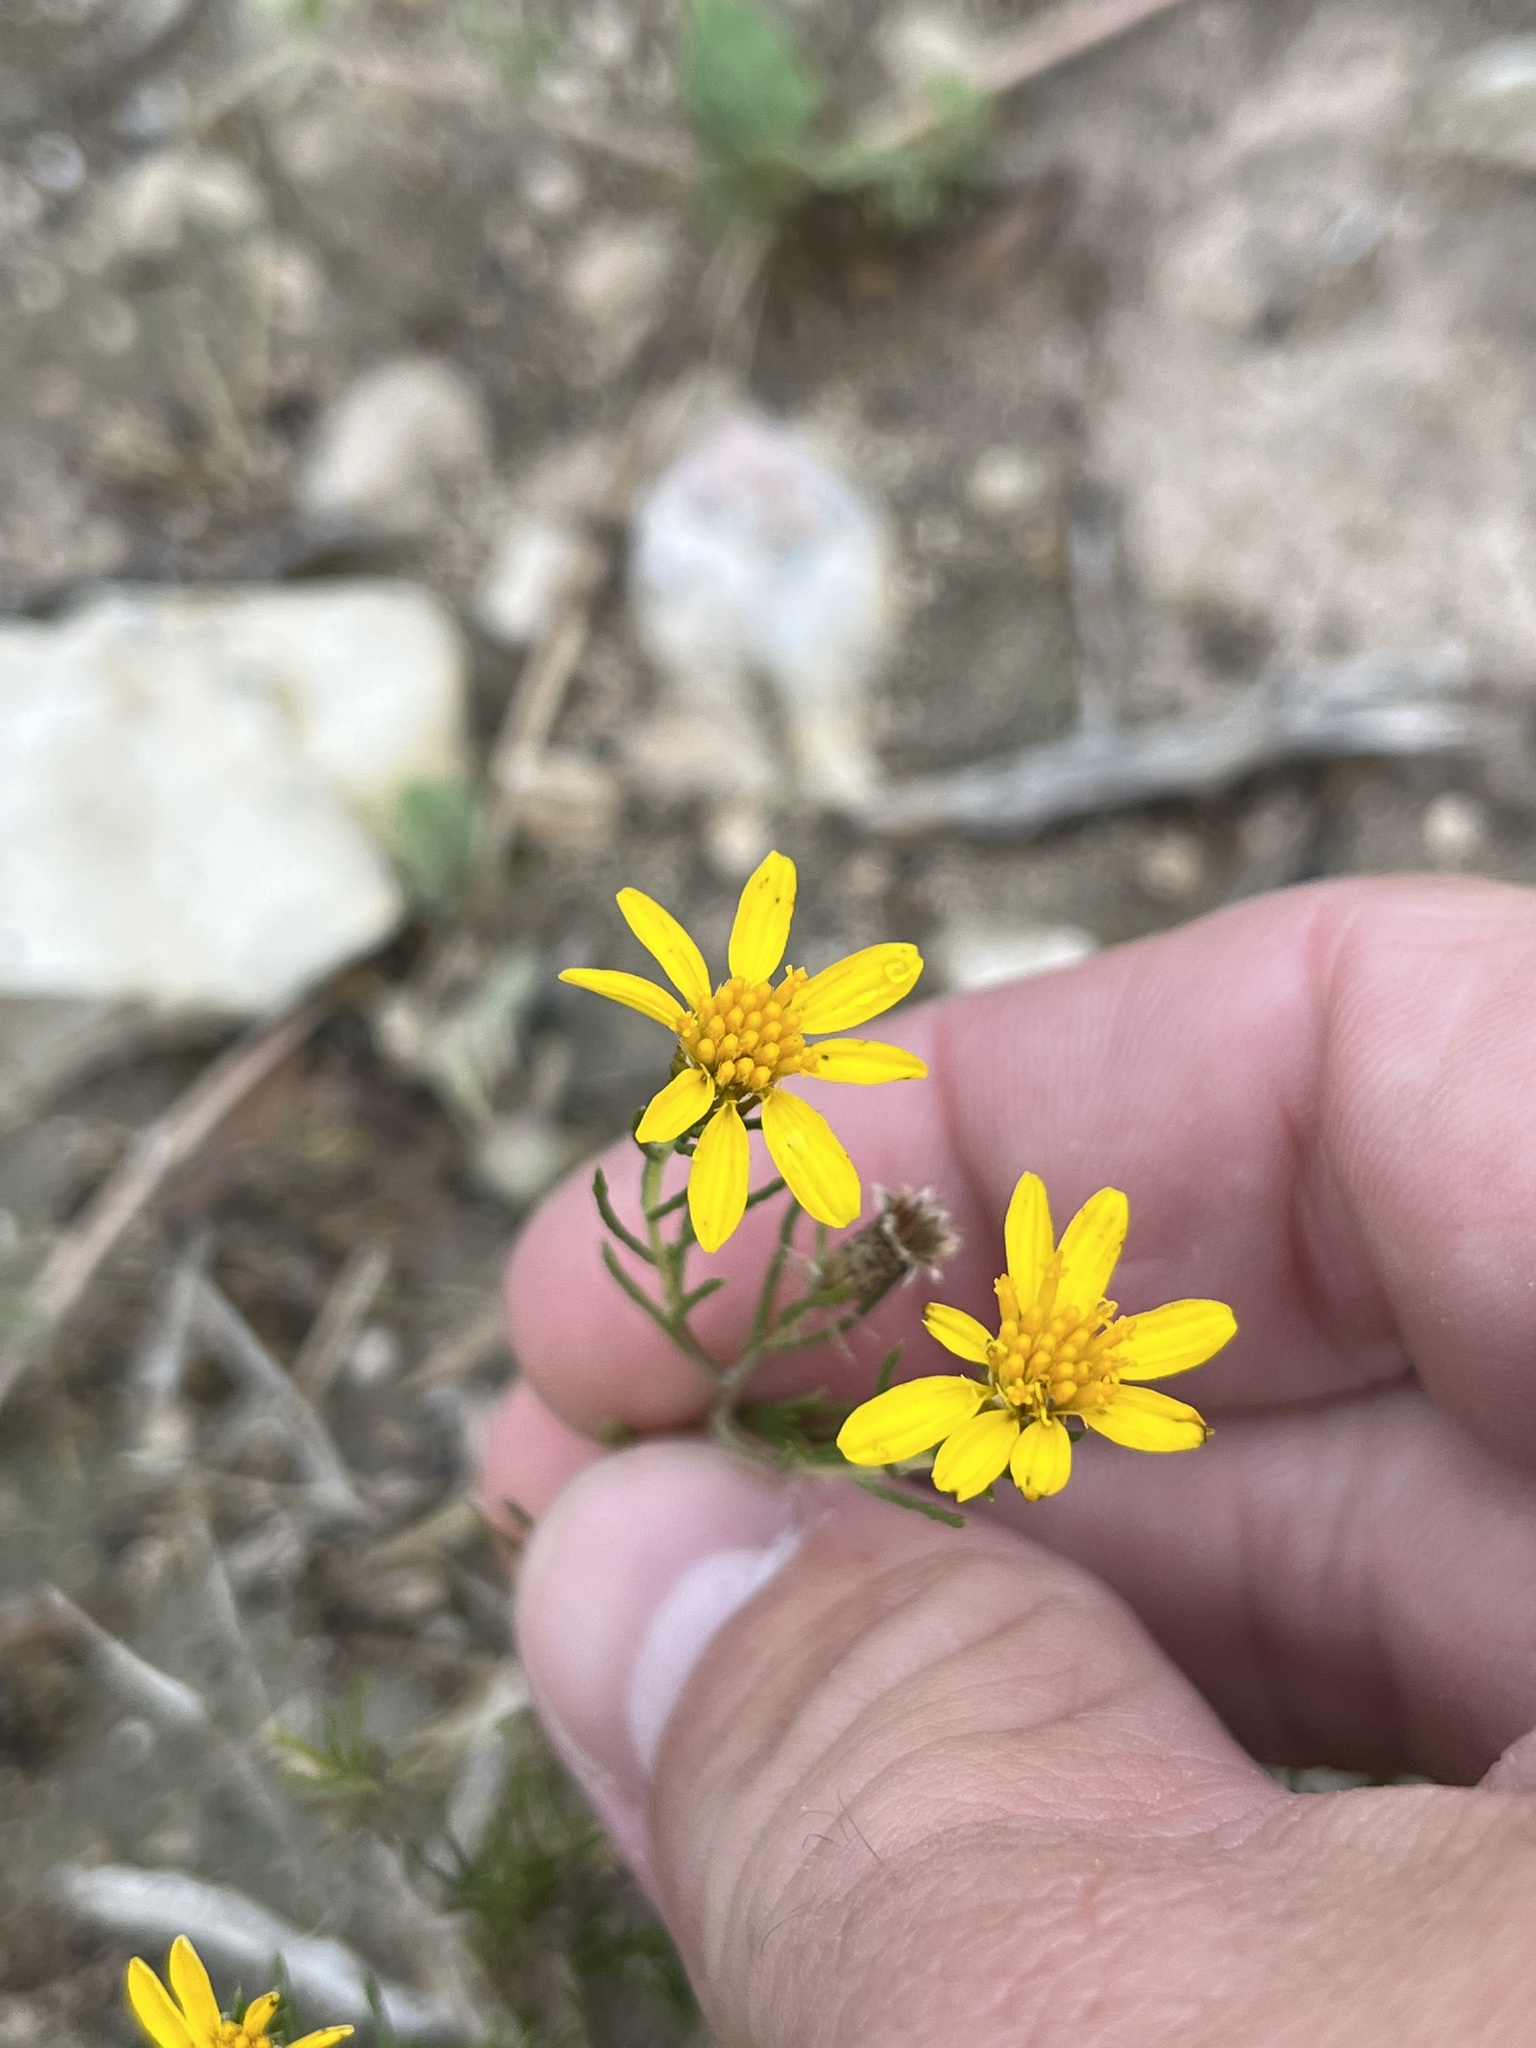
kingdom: Plantae
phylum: Tracheophyta
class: Magnoliopsida
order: Asterales
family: Asteraceae
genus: Thymophylla
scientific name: Thymophylla acerosa
